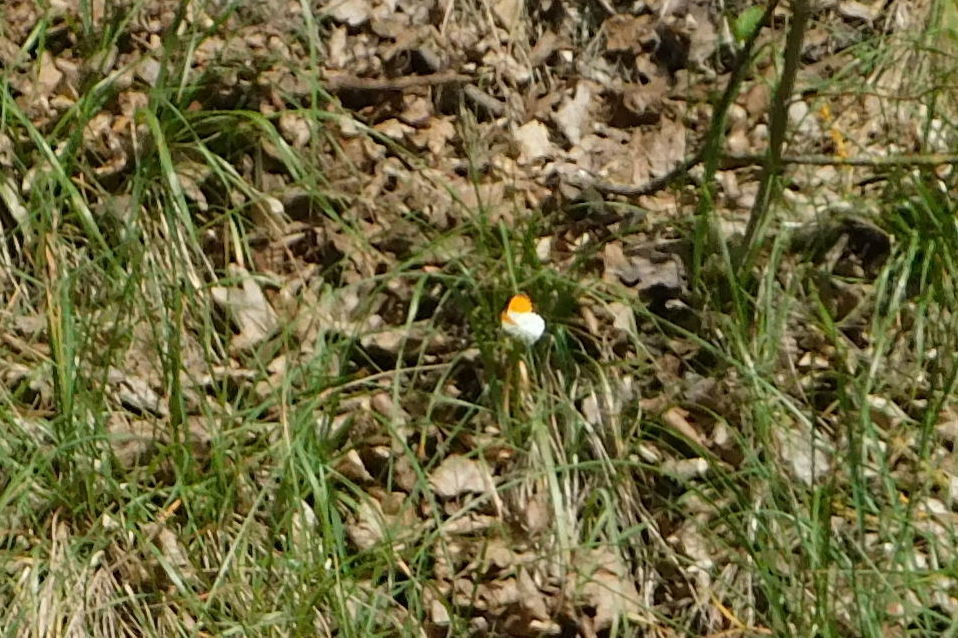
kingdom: Animalia
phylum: Arthropoda
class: Insecta
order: Lepidoptera
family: Pieridae
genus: Anthocharis
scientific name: Anthocharis cardamines
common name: Orange-tip
